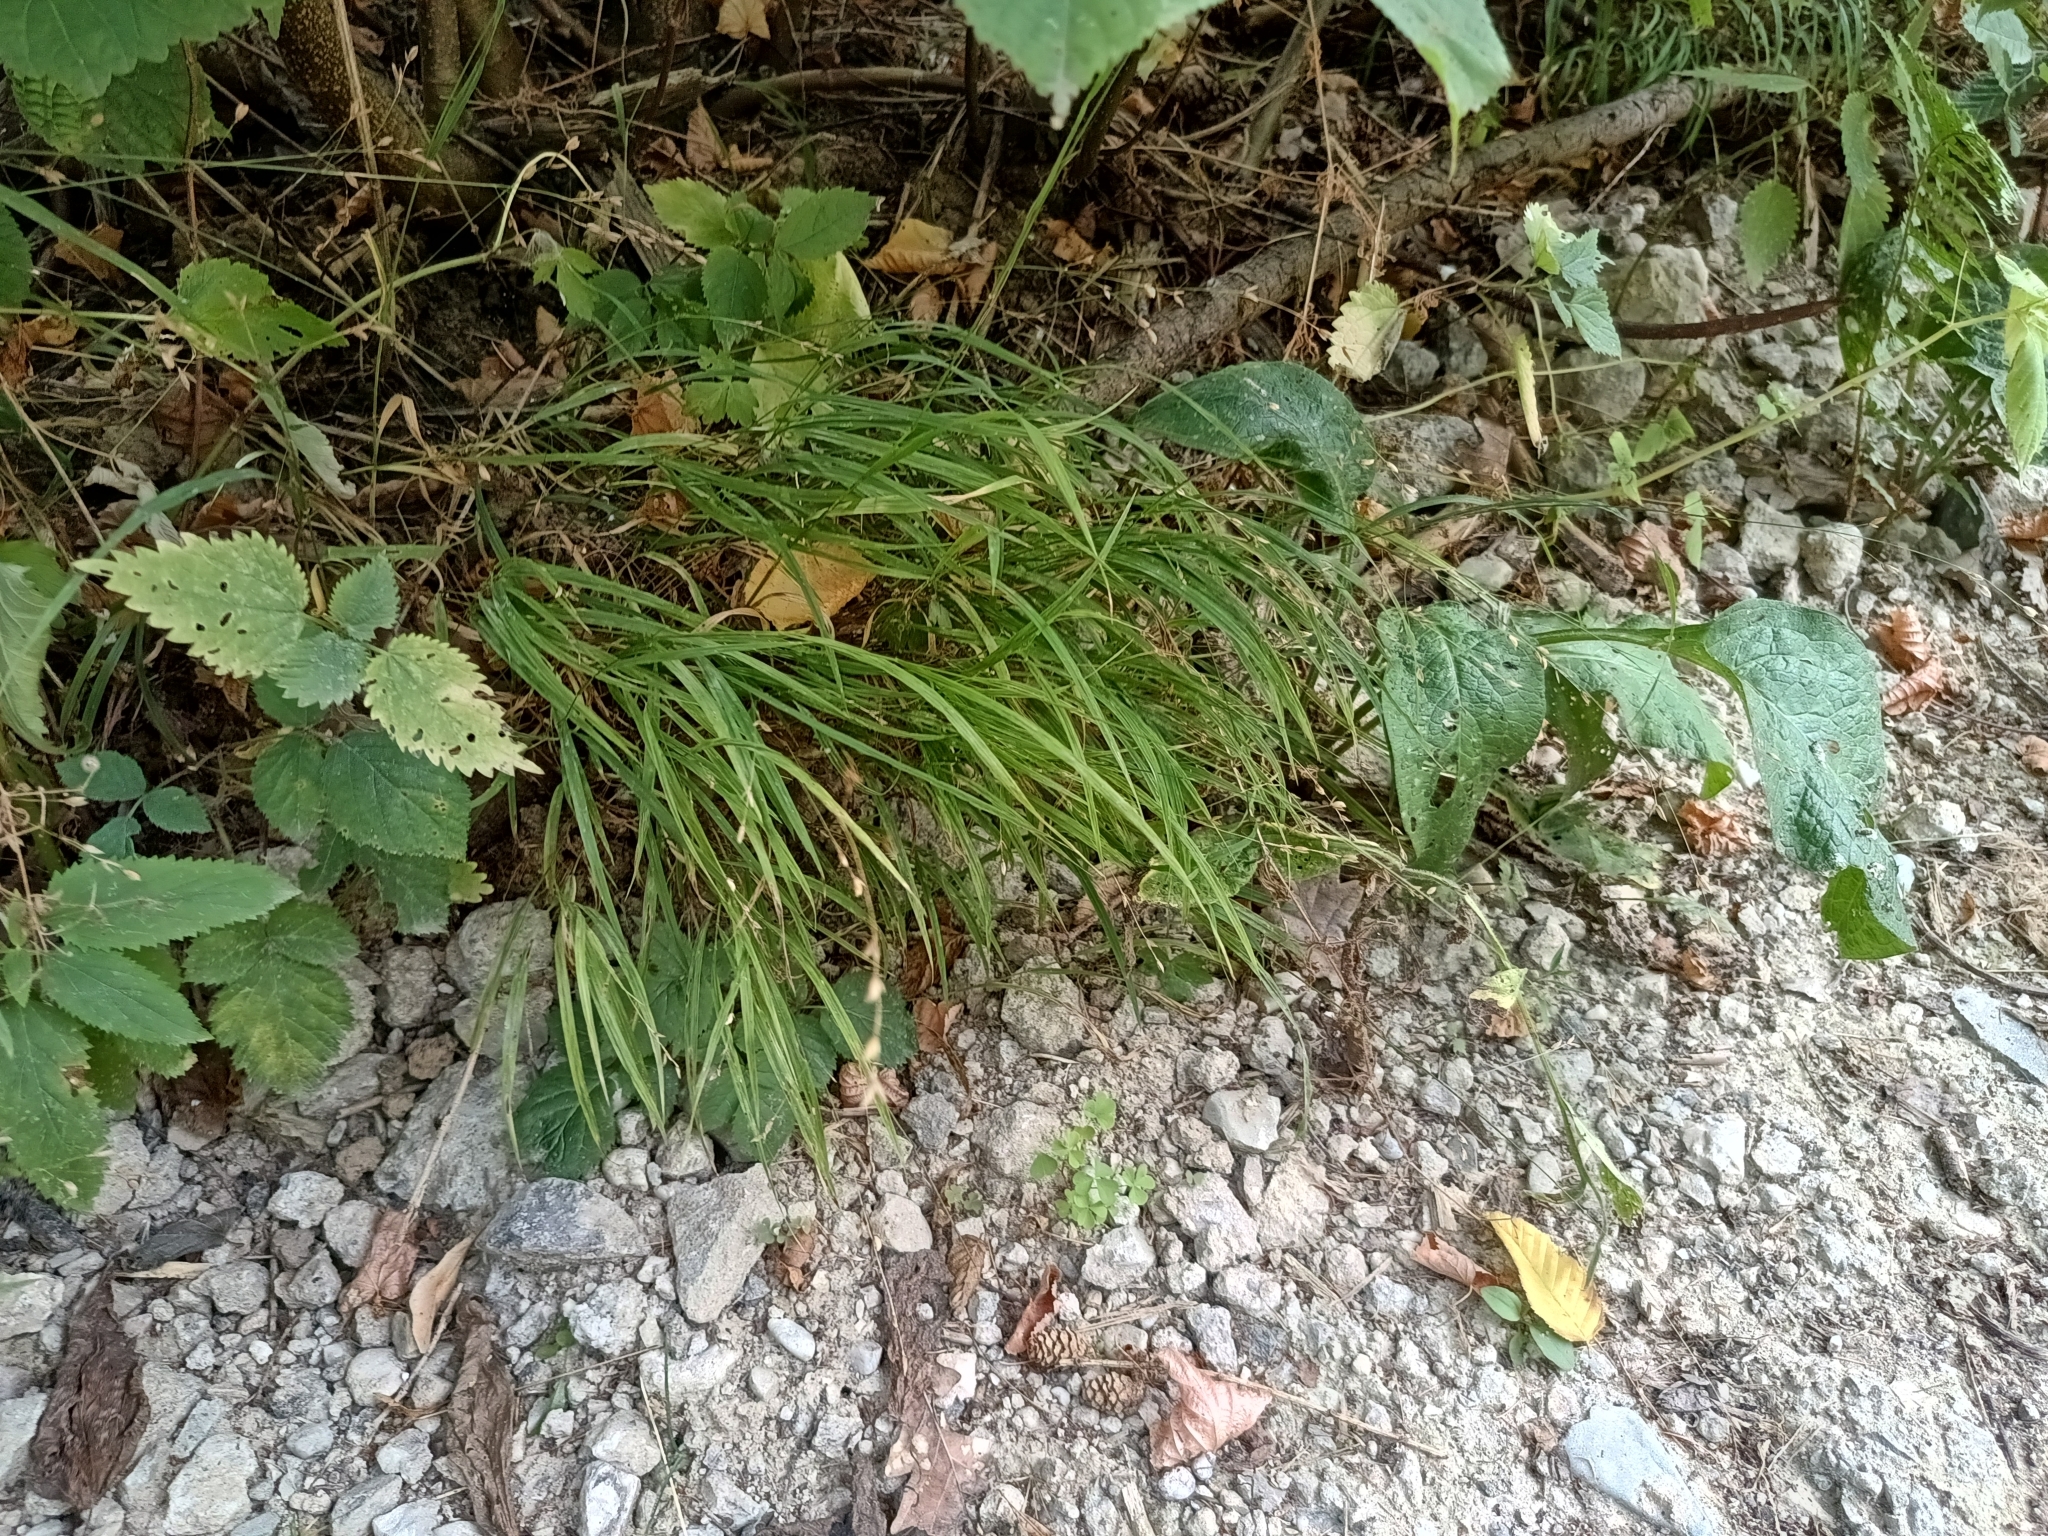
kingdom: Plantae
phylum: Tracheophyta
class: Liliopsida
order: Poales
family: Poaceae
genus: Melica
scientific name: Melica uniflora
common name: Wood melick
